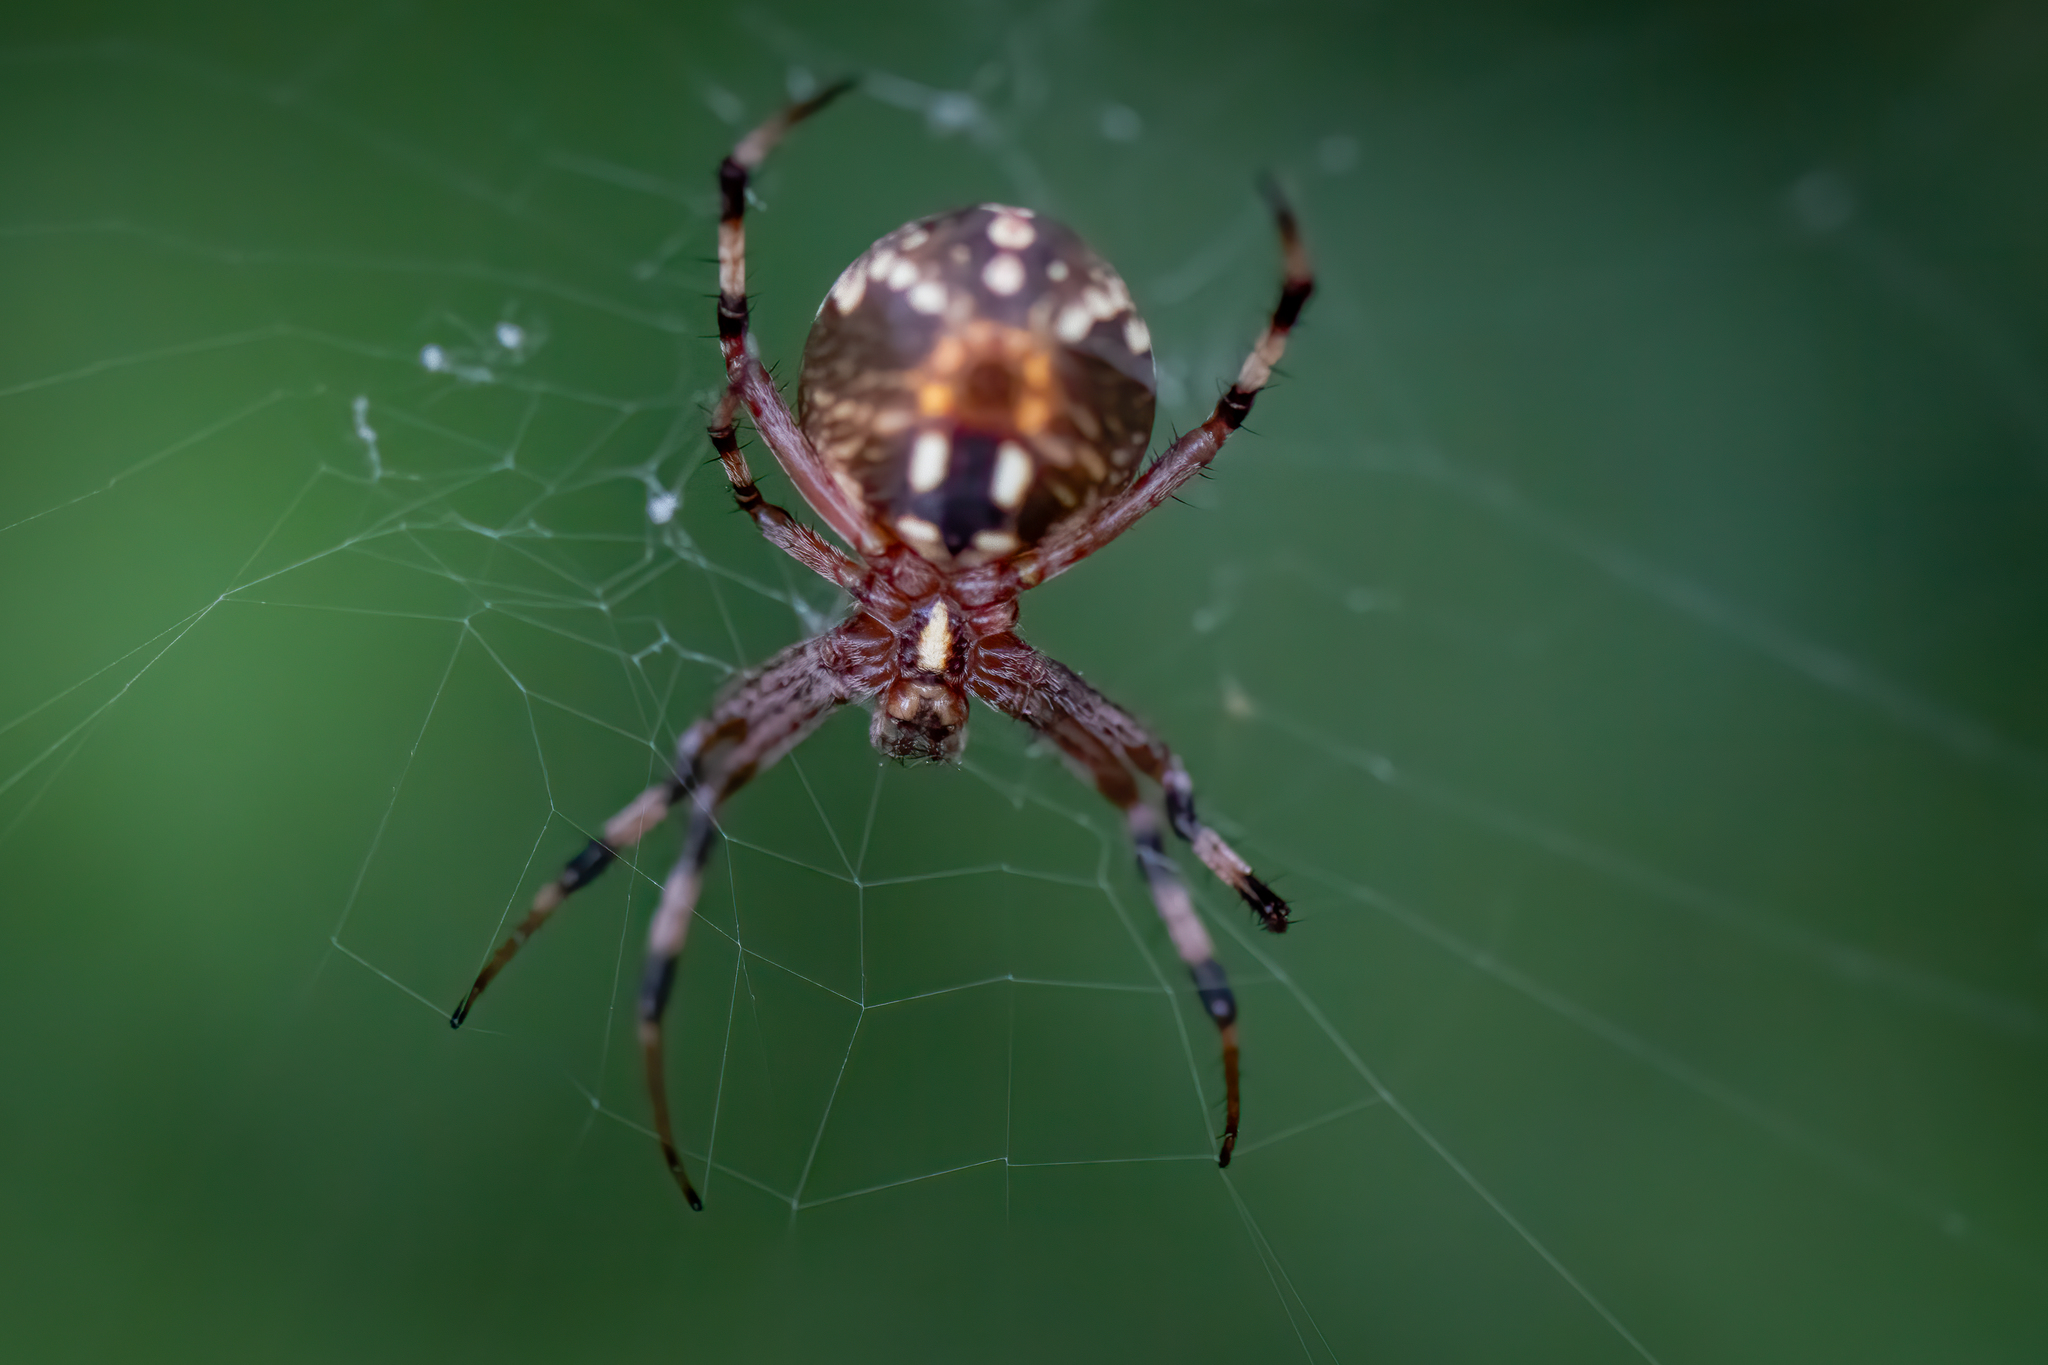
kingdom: Animalia
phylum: Arthropoda
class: Arachnida
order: Araneae
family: Araneidae
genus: Neoscona
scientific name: Neoscona oaxacensis
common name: Orb weavers
